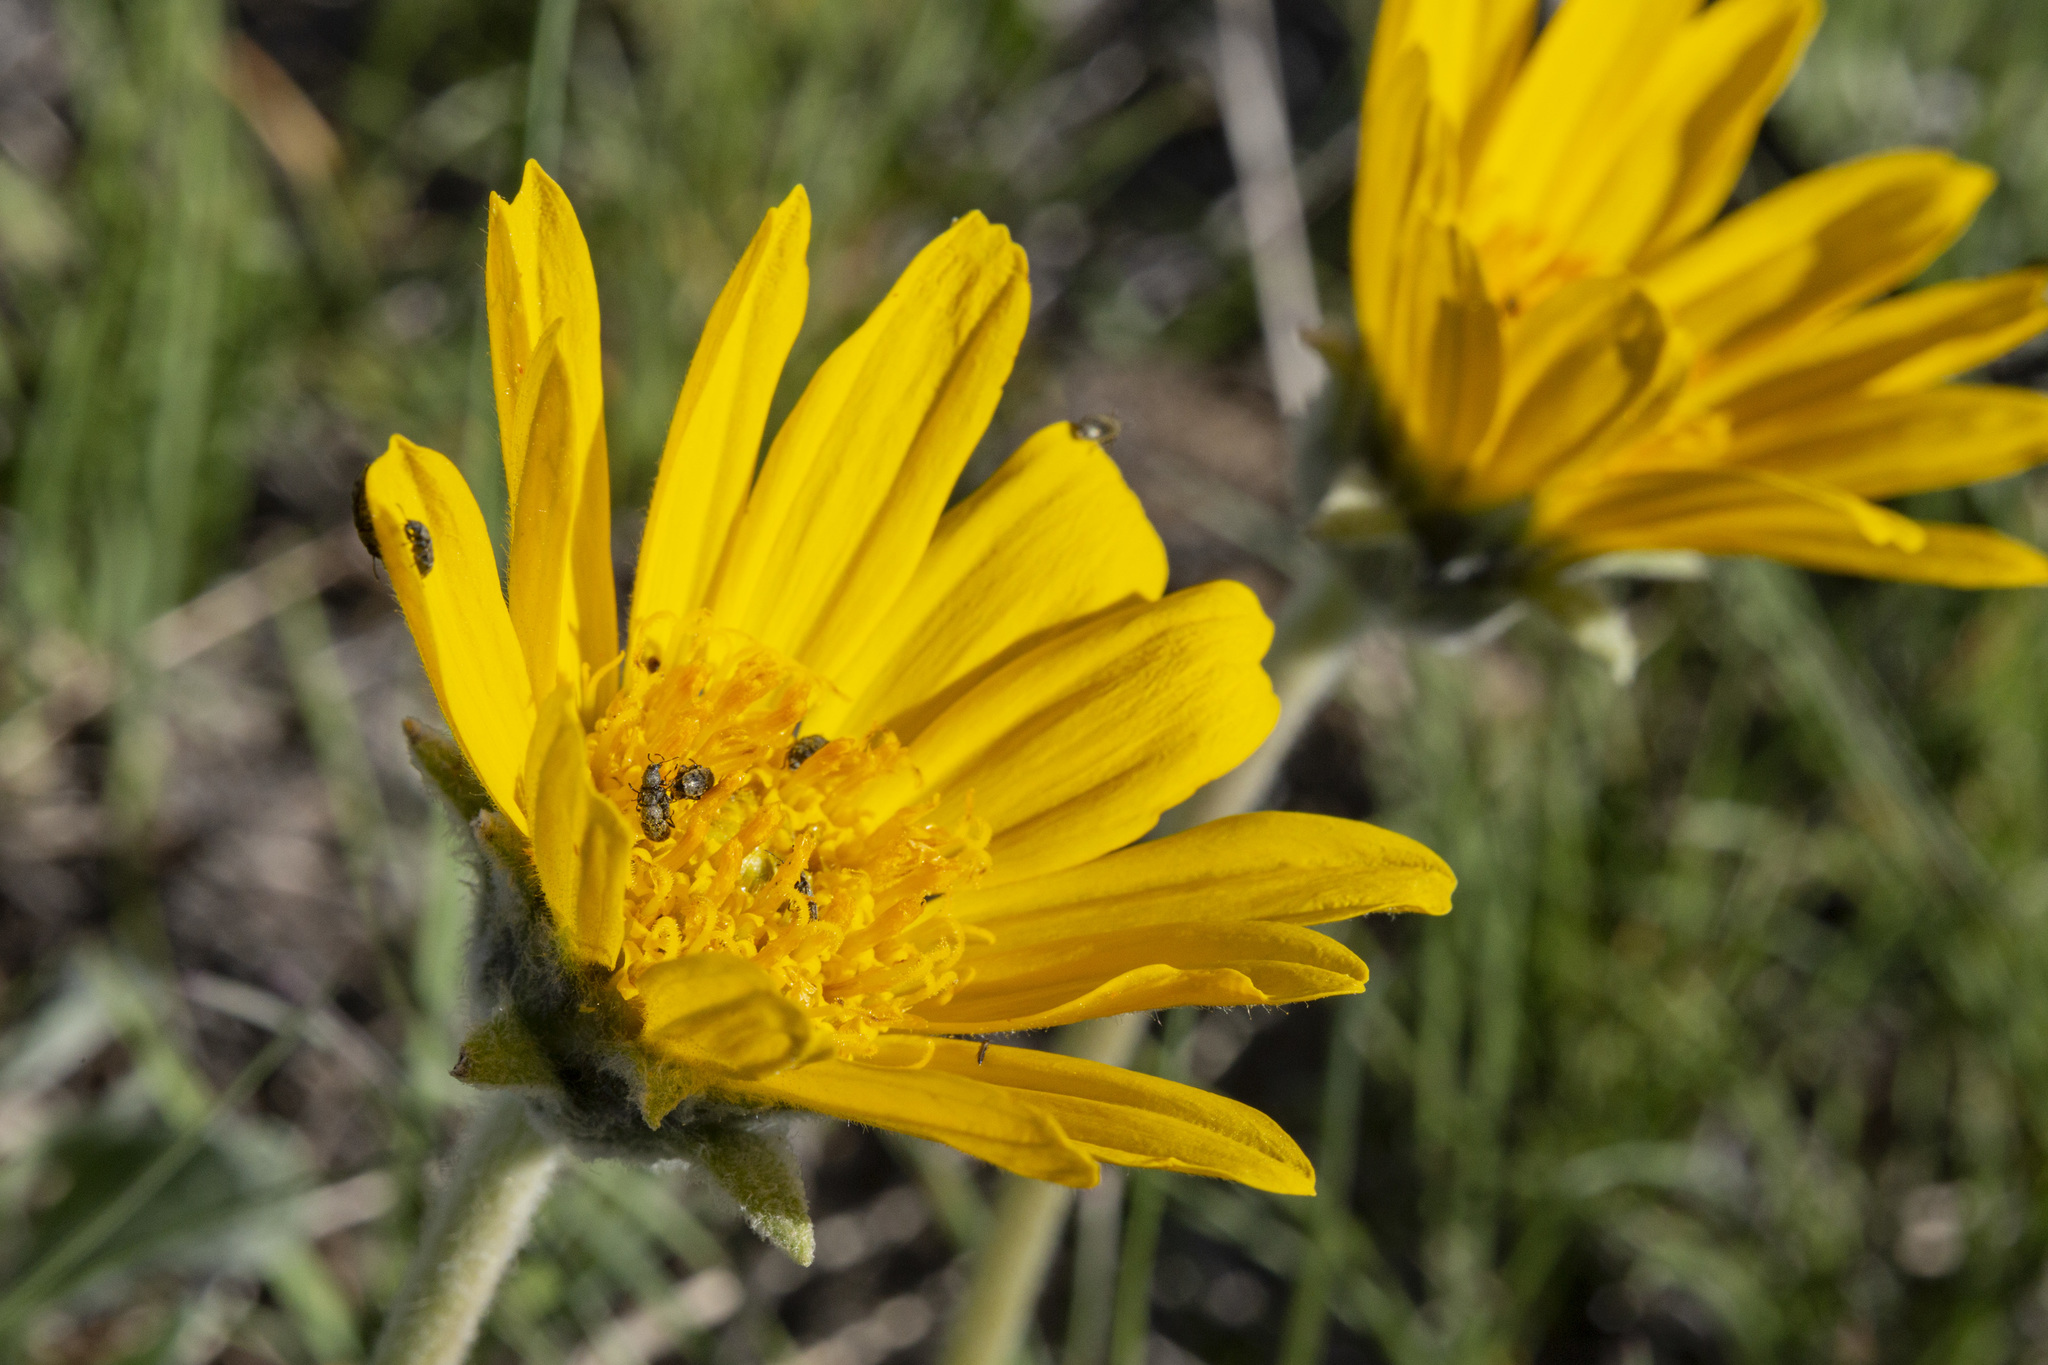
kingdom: Plantae
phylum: Tracheophyta
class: Magnoliopsida
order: Asterales
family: Asteraceae
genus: Balsamorhiza
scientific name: Balsamorhiza incana
